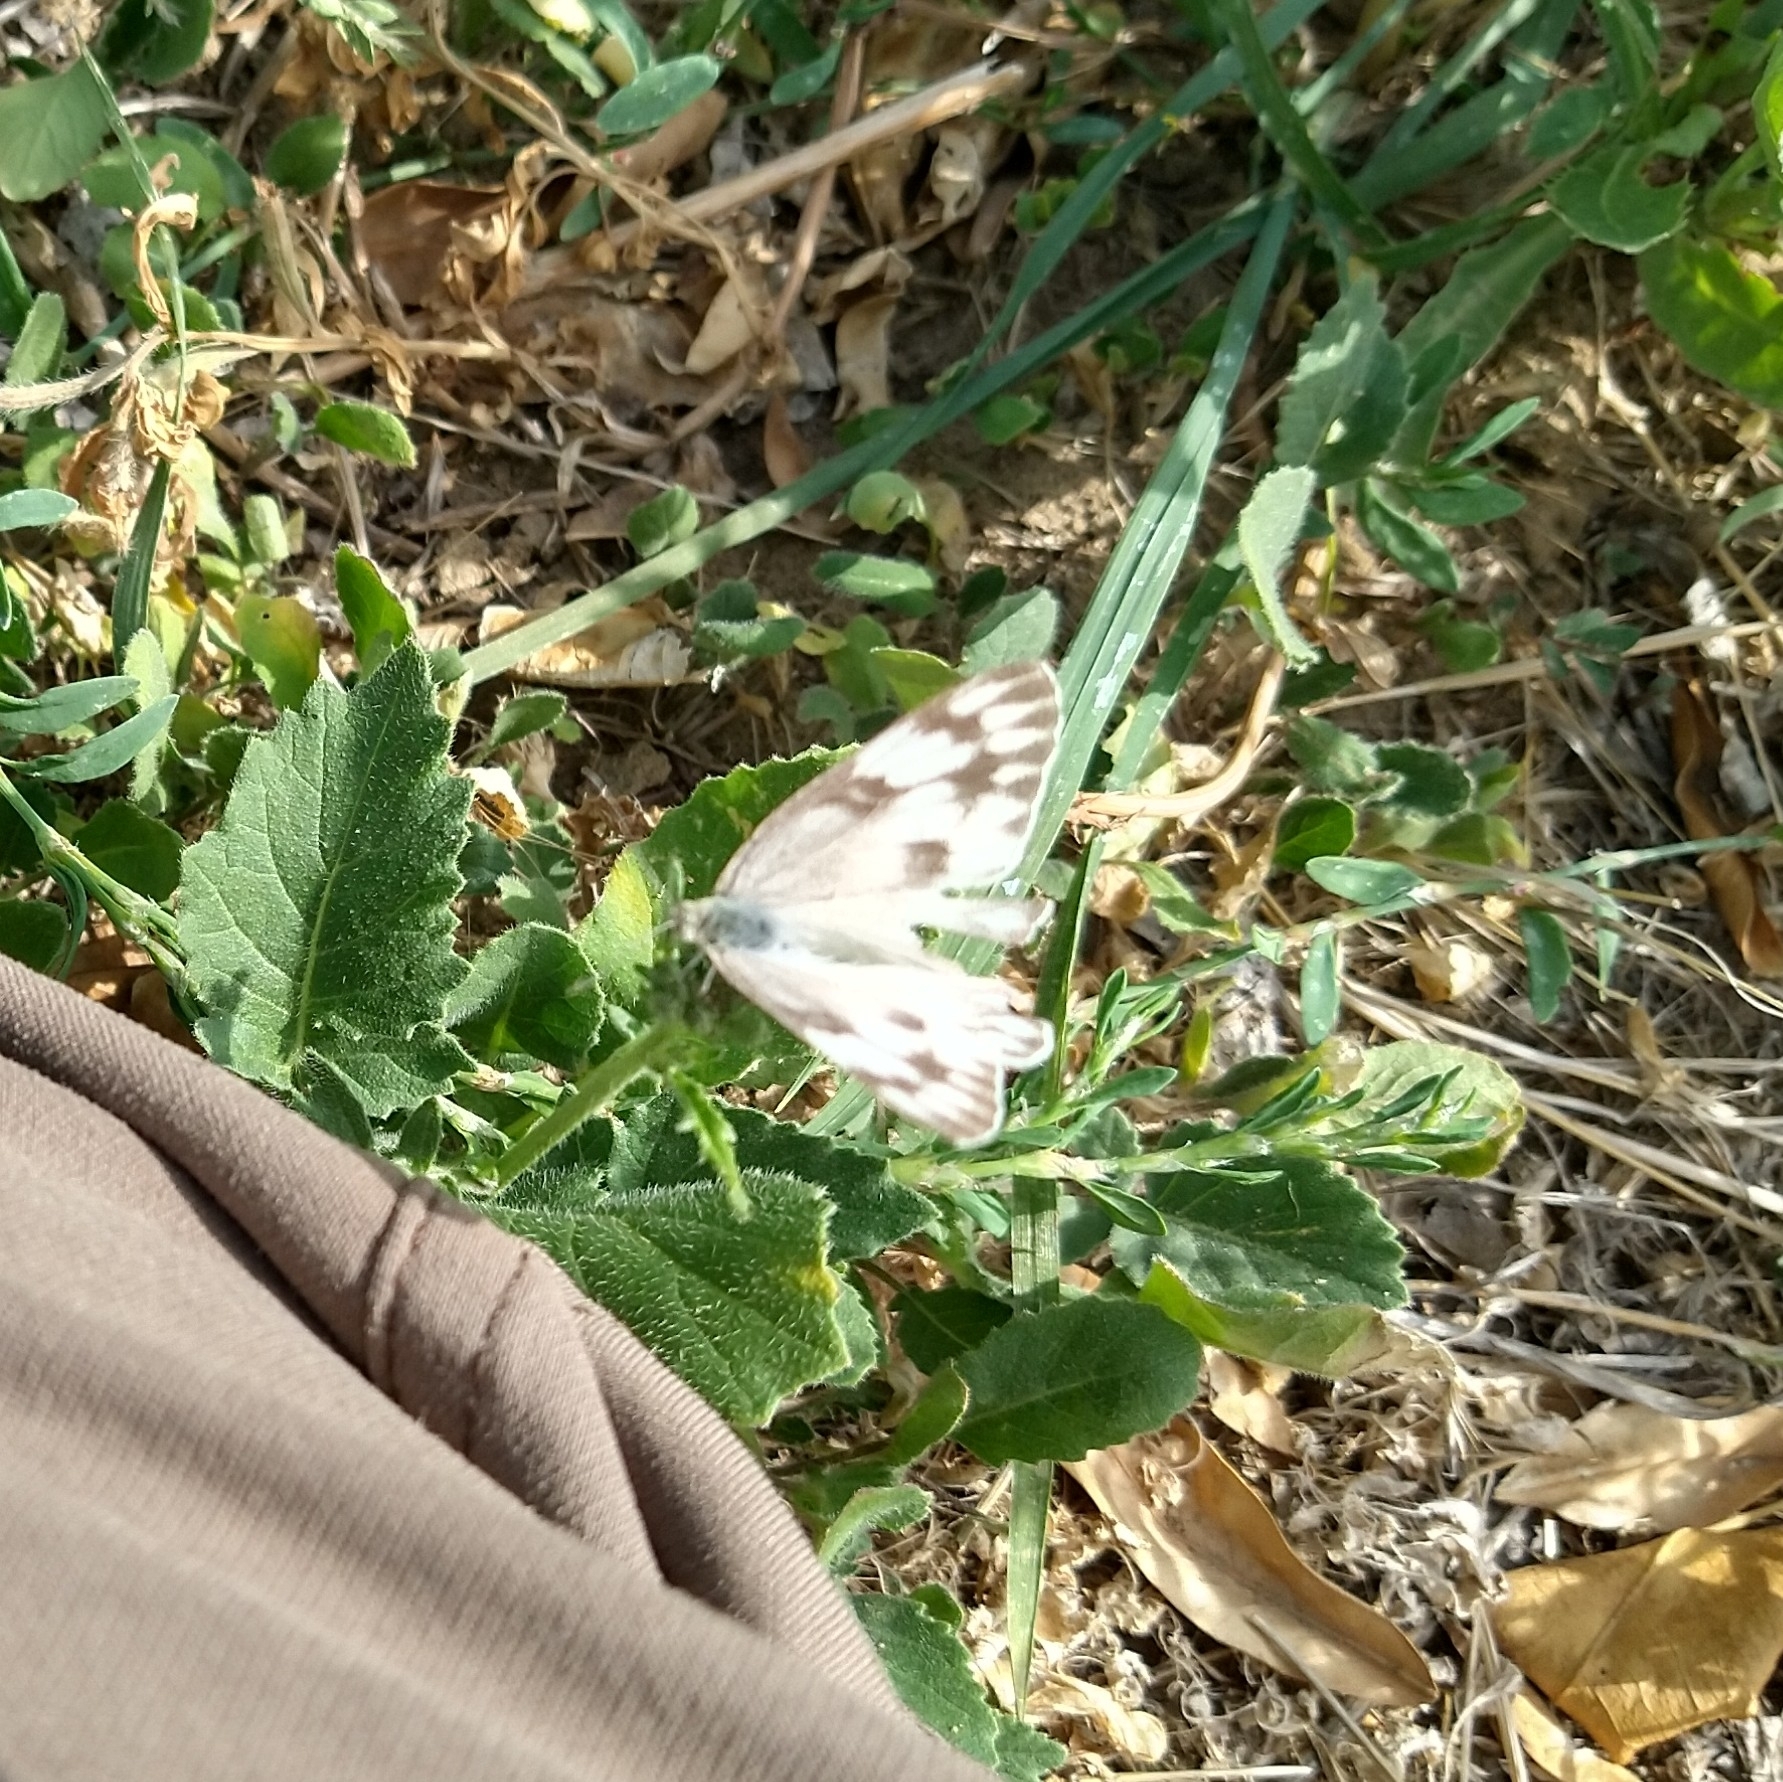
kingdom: Animalia
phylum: Arthropoda
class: Insecta
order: Lepidoptera
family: Pieridae
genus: Pontia
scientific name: Pontia protodice
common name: Checkered white
